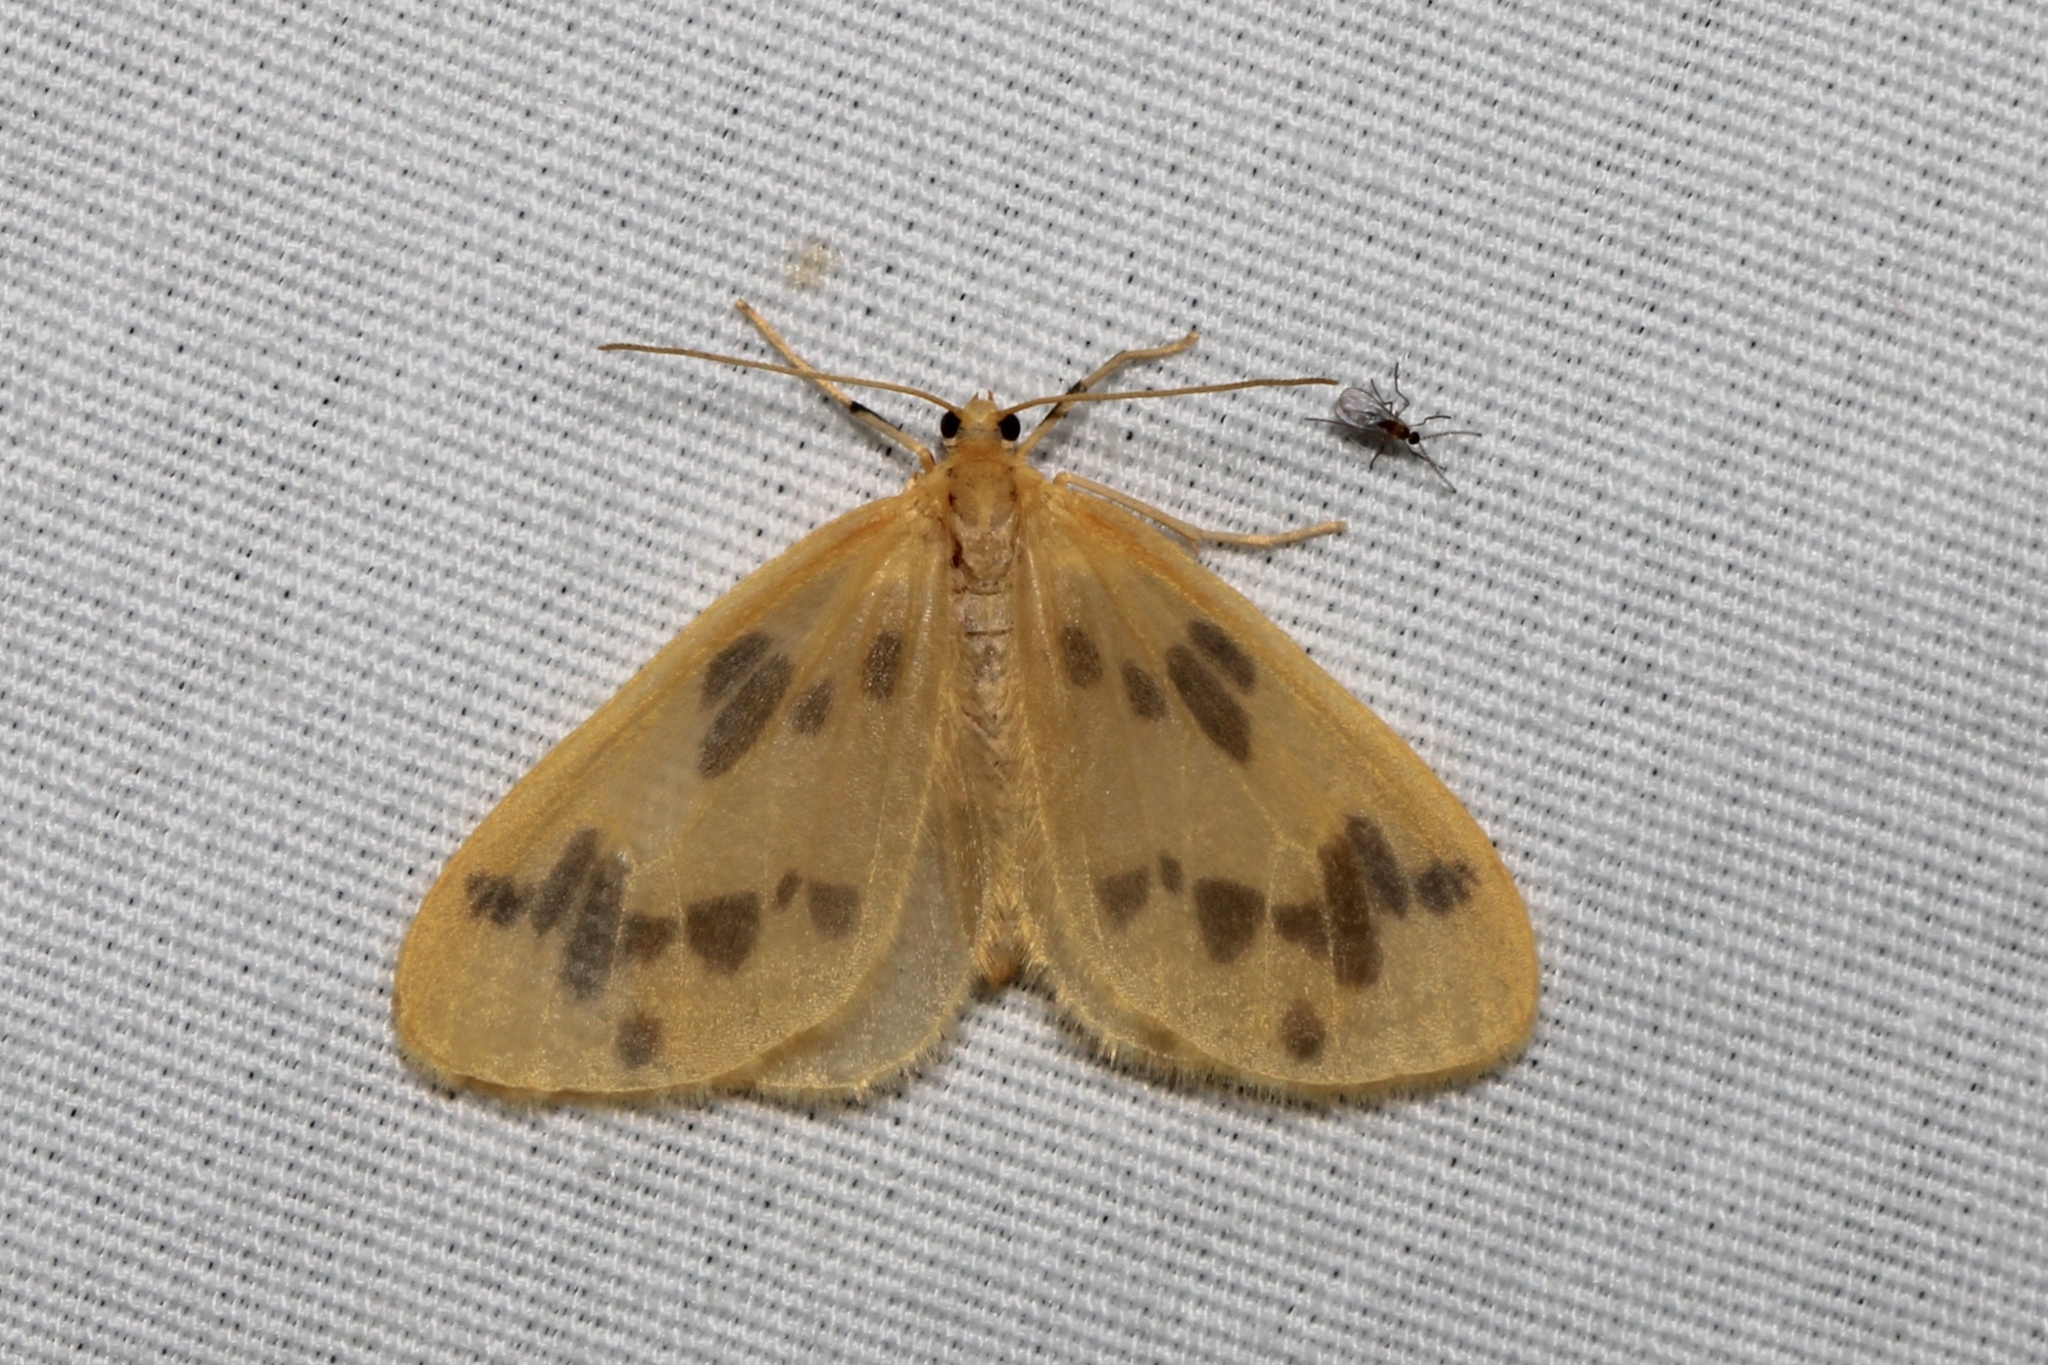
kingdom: Animalia
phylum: Arthropoda
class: Insecta
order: Lepidoptera
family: Geometridae
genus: Eubaphe
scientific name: Eubaphe mendica
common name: Beggar
